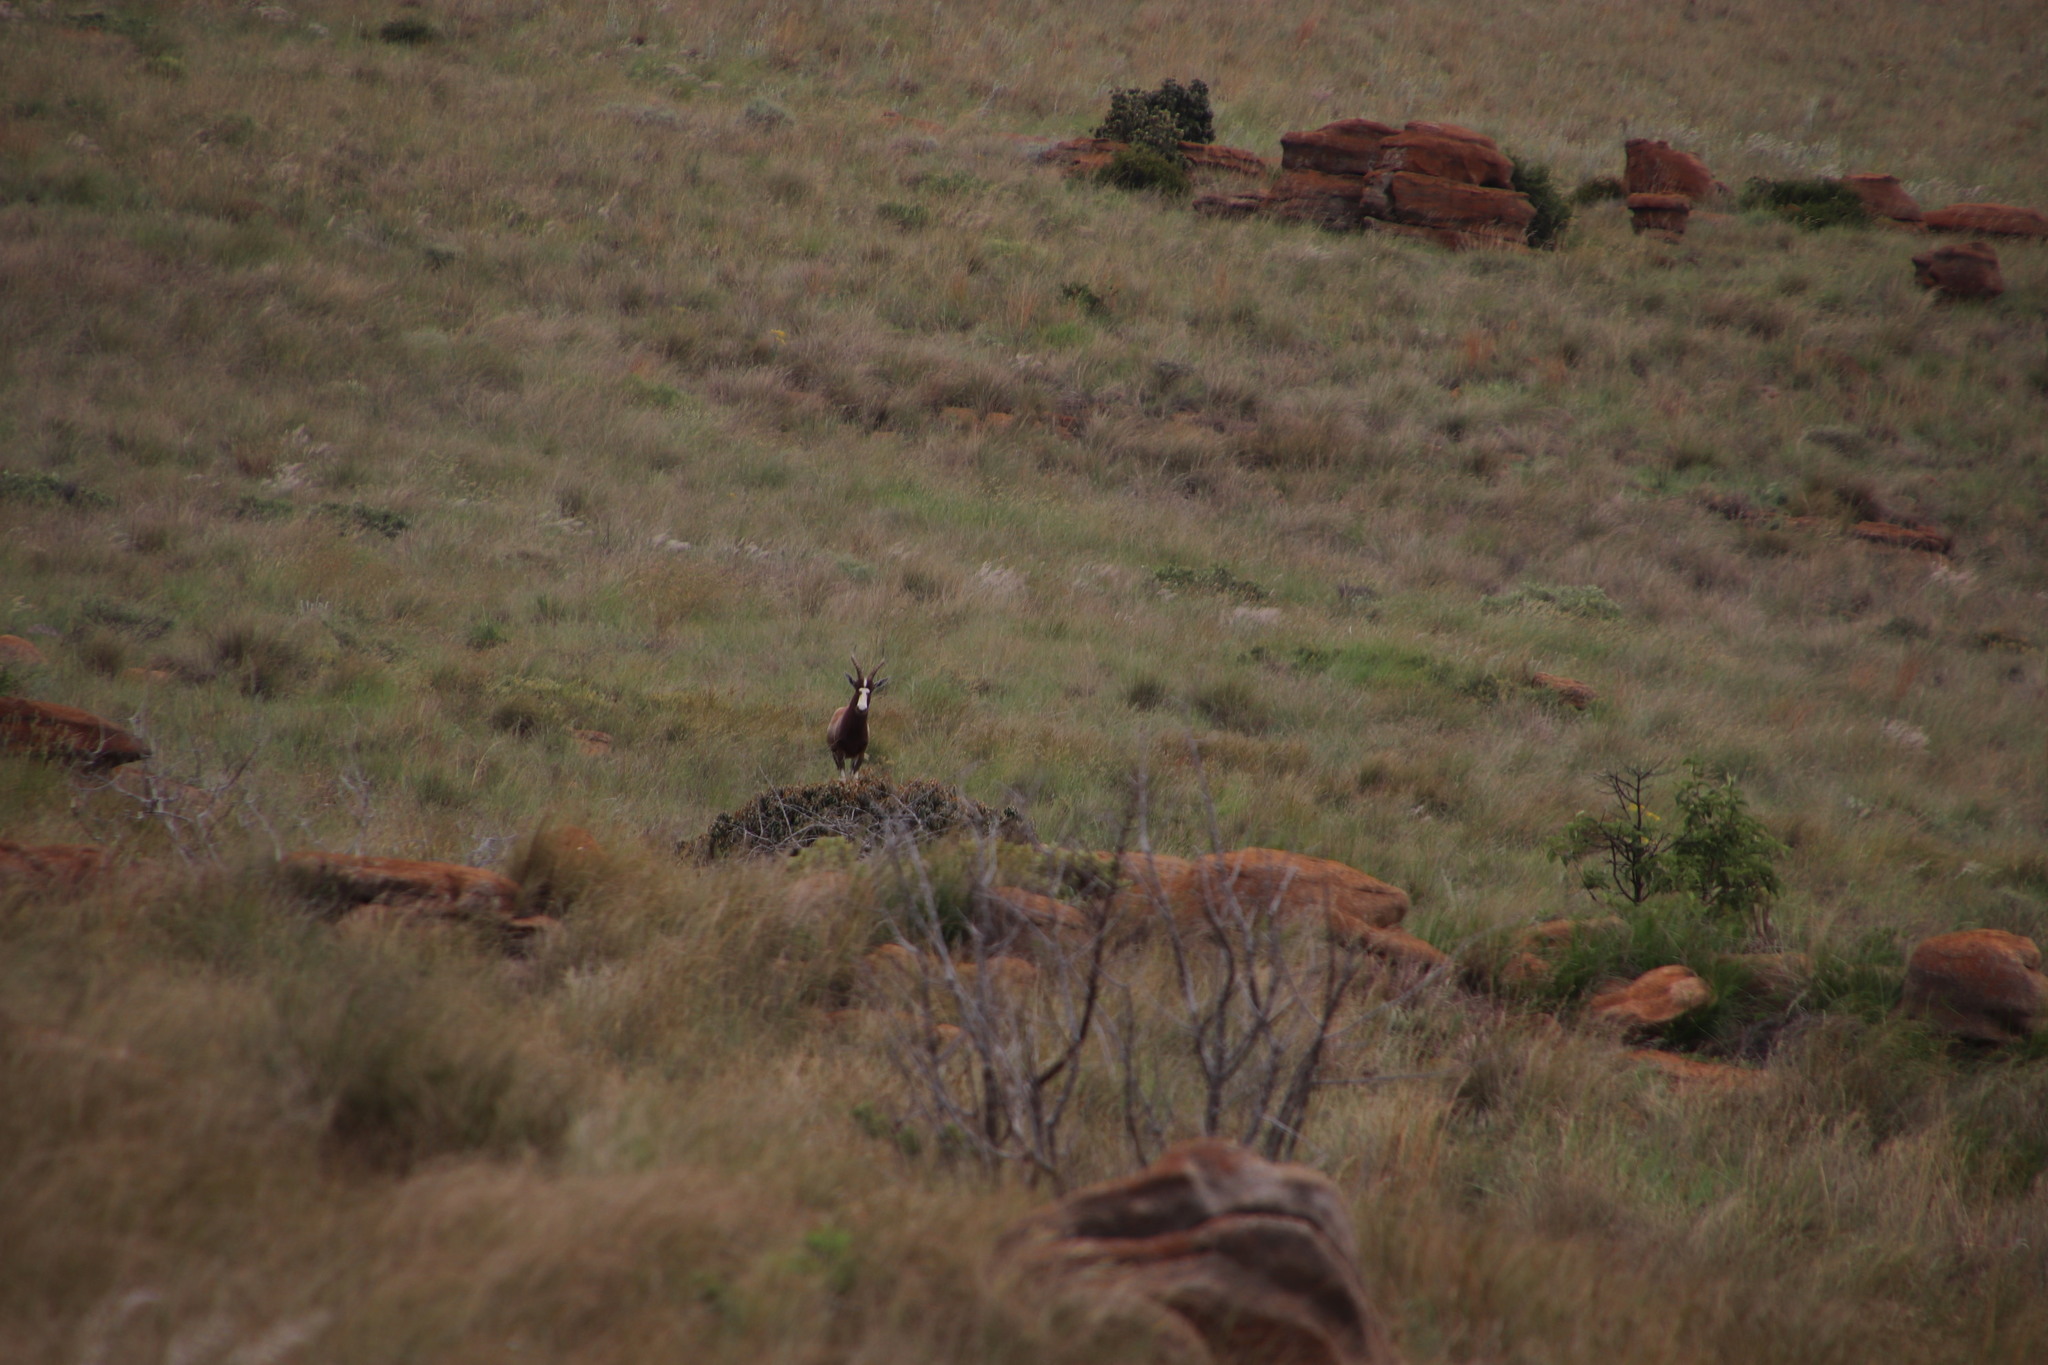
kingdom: Animalia
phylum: Chordata
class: Mammalia
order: Artiodactyla
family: Bovidae
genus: Damaliscus
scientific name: Damaliscus pygargus
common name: Bontebok
